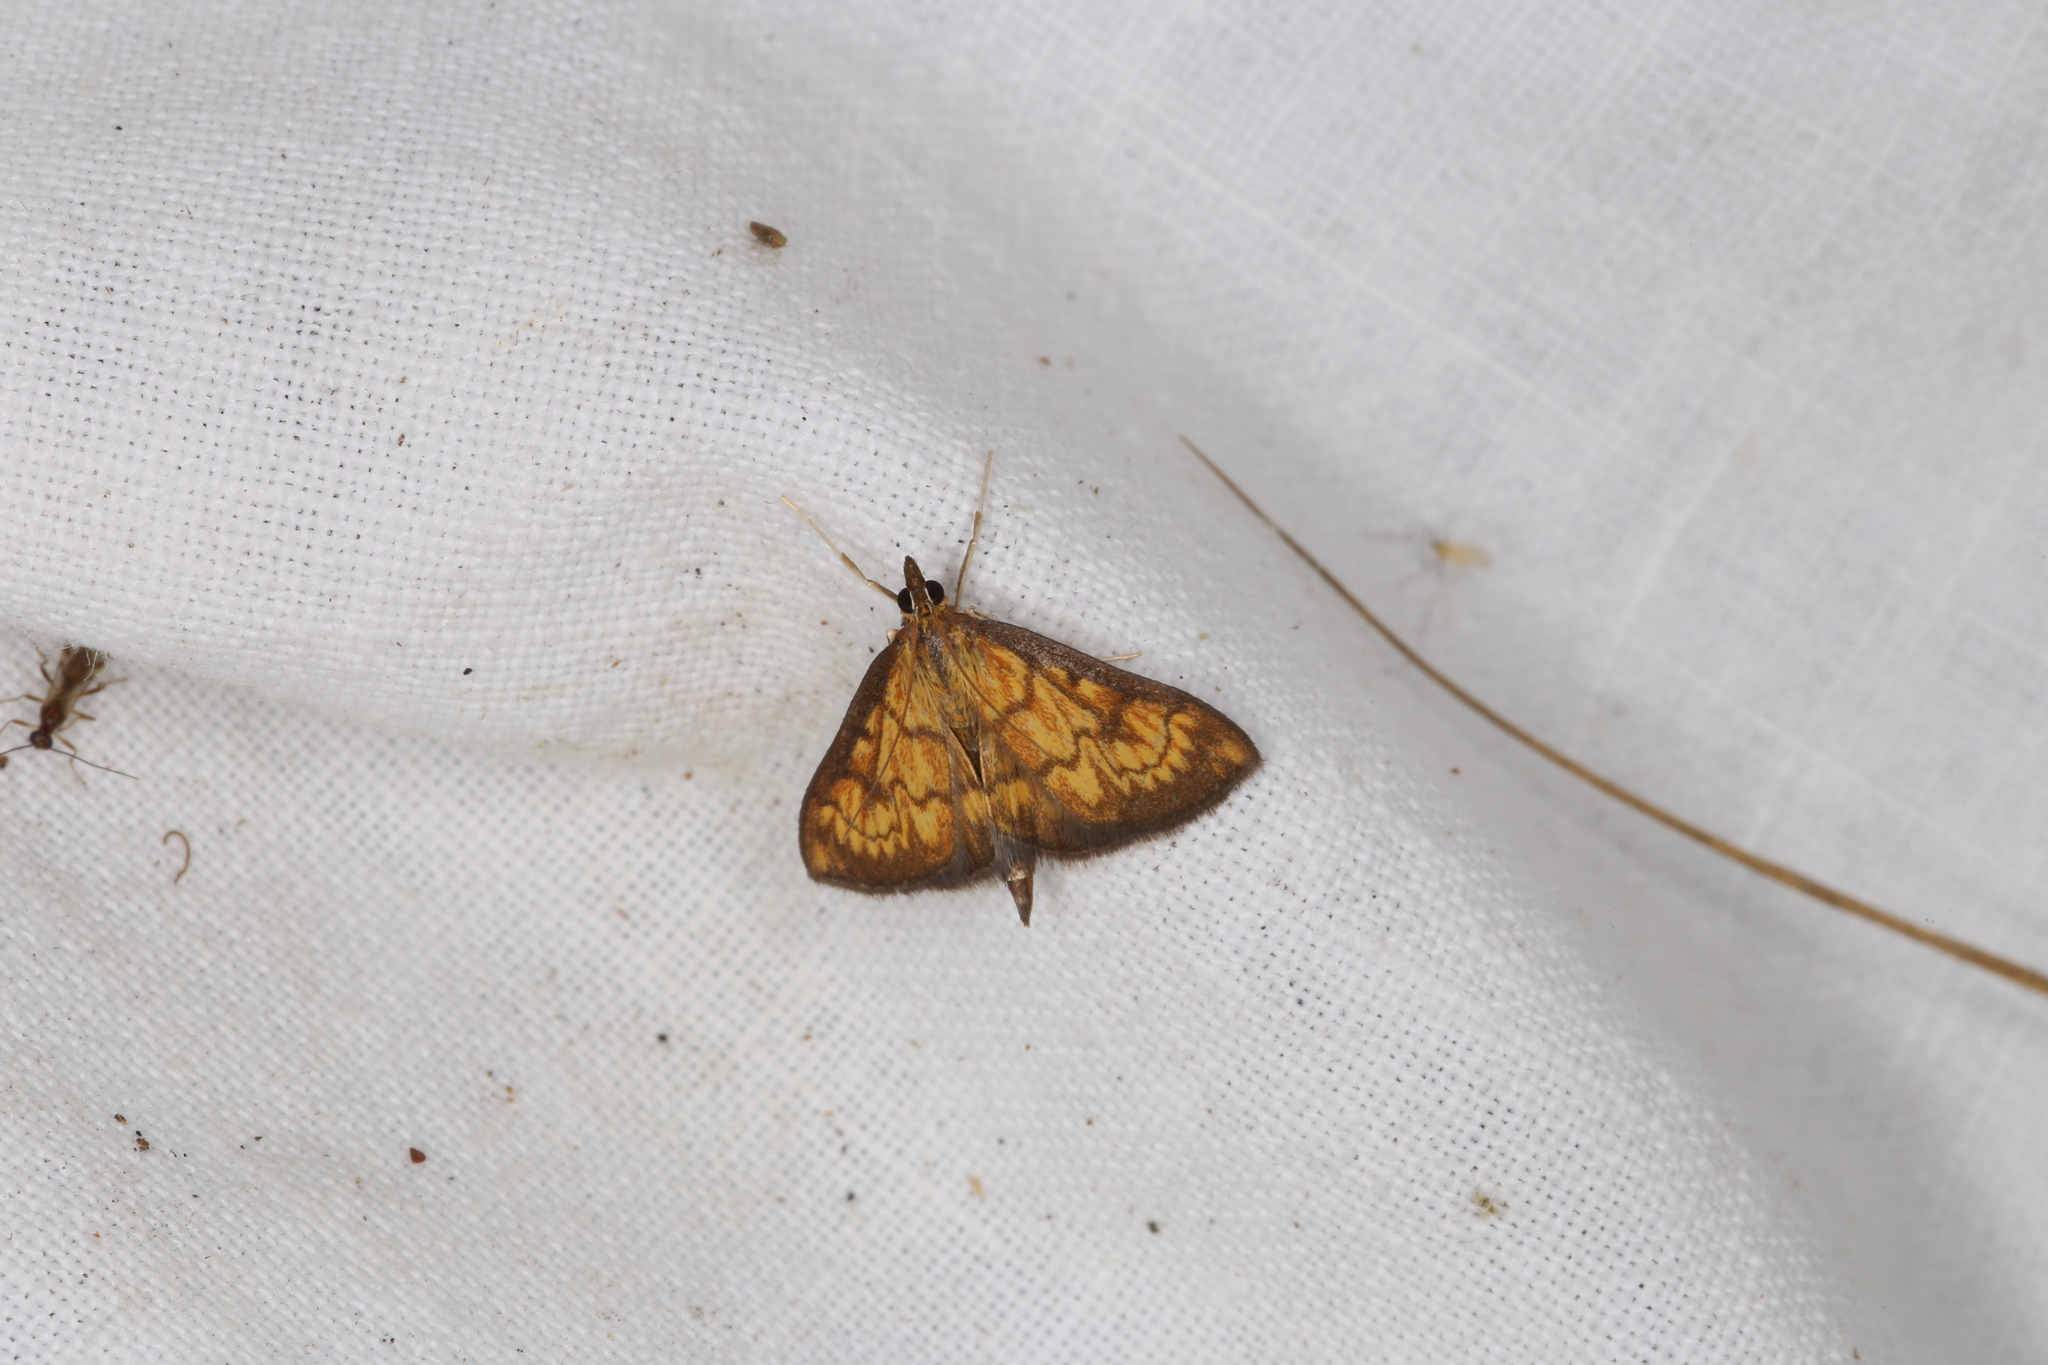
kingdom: Animalia
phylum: Arthropoda
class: Insecta
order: Lepidoptera
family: Crambidae
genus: Ecpyrrhorrhoe
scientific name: Ecpyrrhorrhoe rubiginalis
